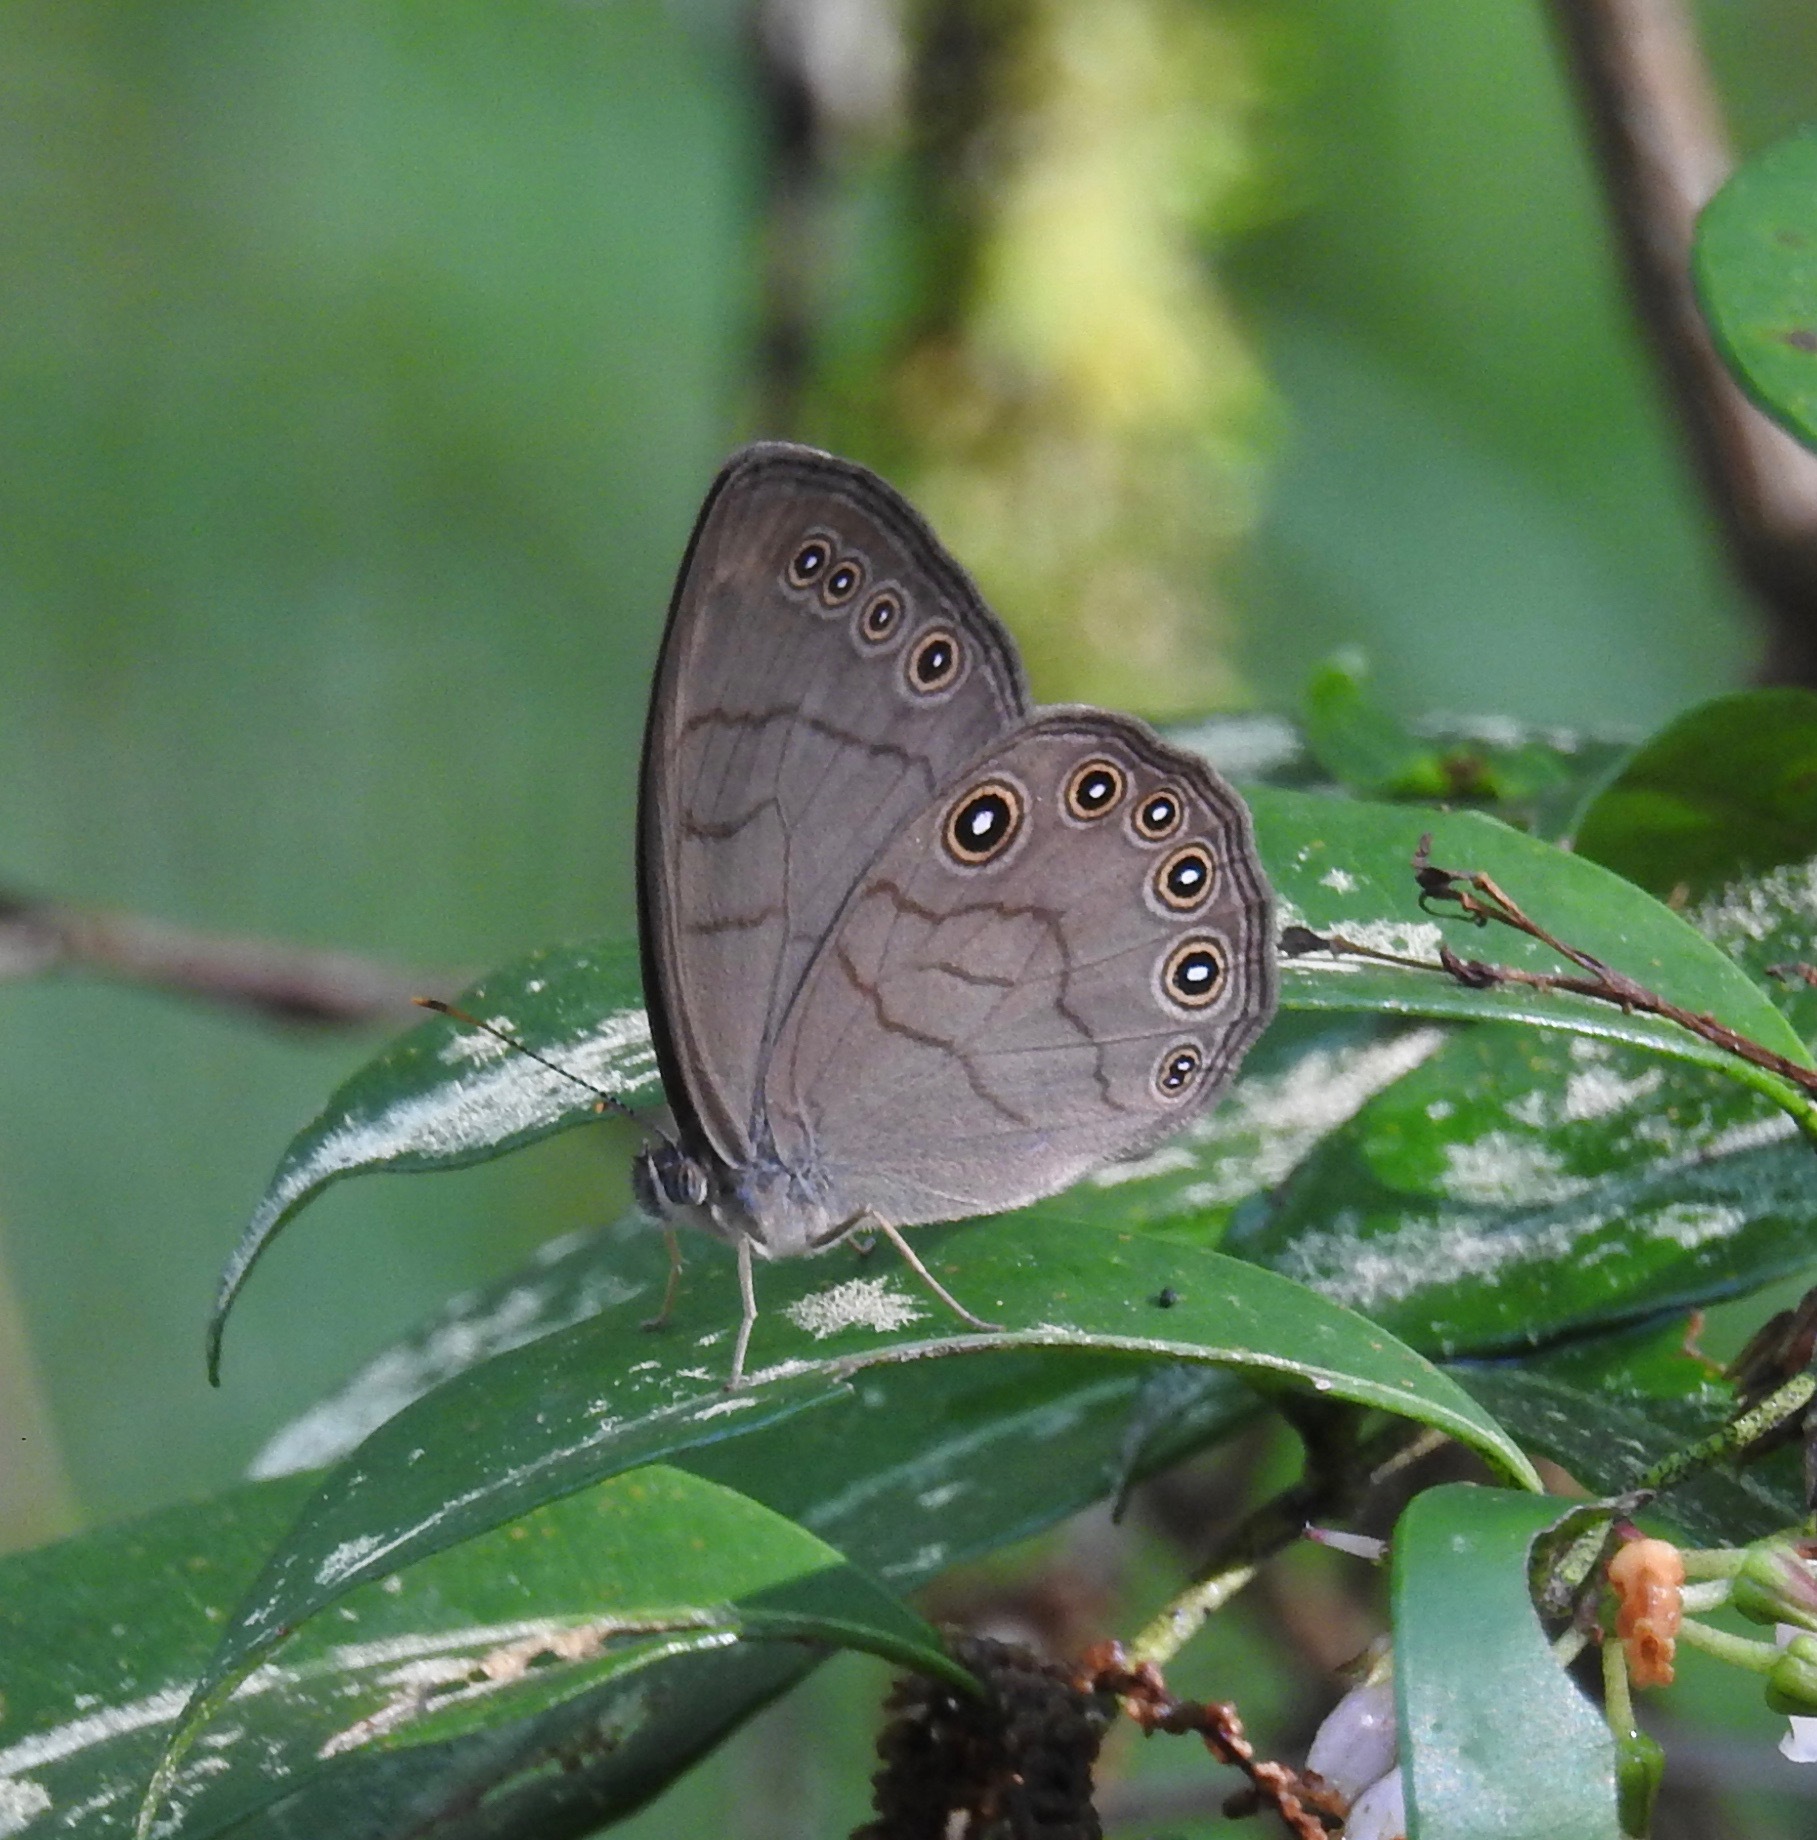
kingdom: Animalia
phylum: Arthropoda
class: Insecta
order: Lepidoptera
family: Nymphalidae
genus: Lethe
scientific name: Lethe eurydice
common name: Eyed brown
